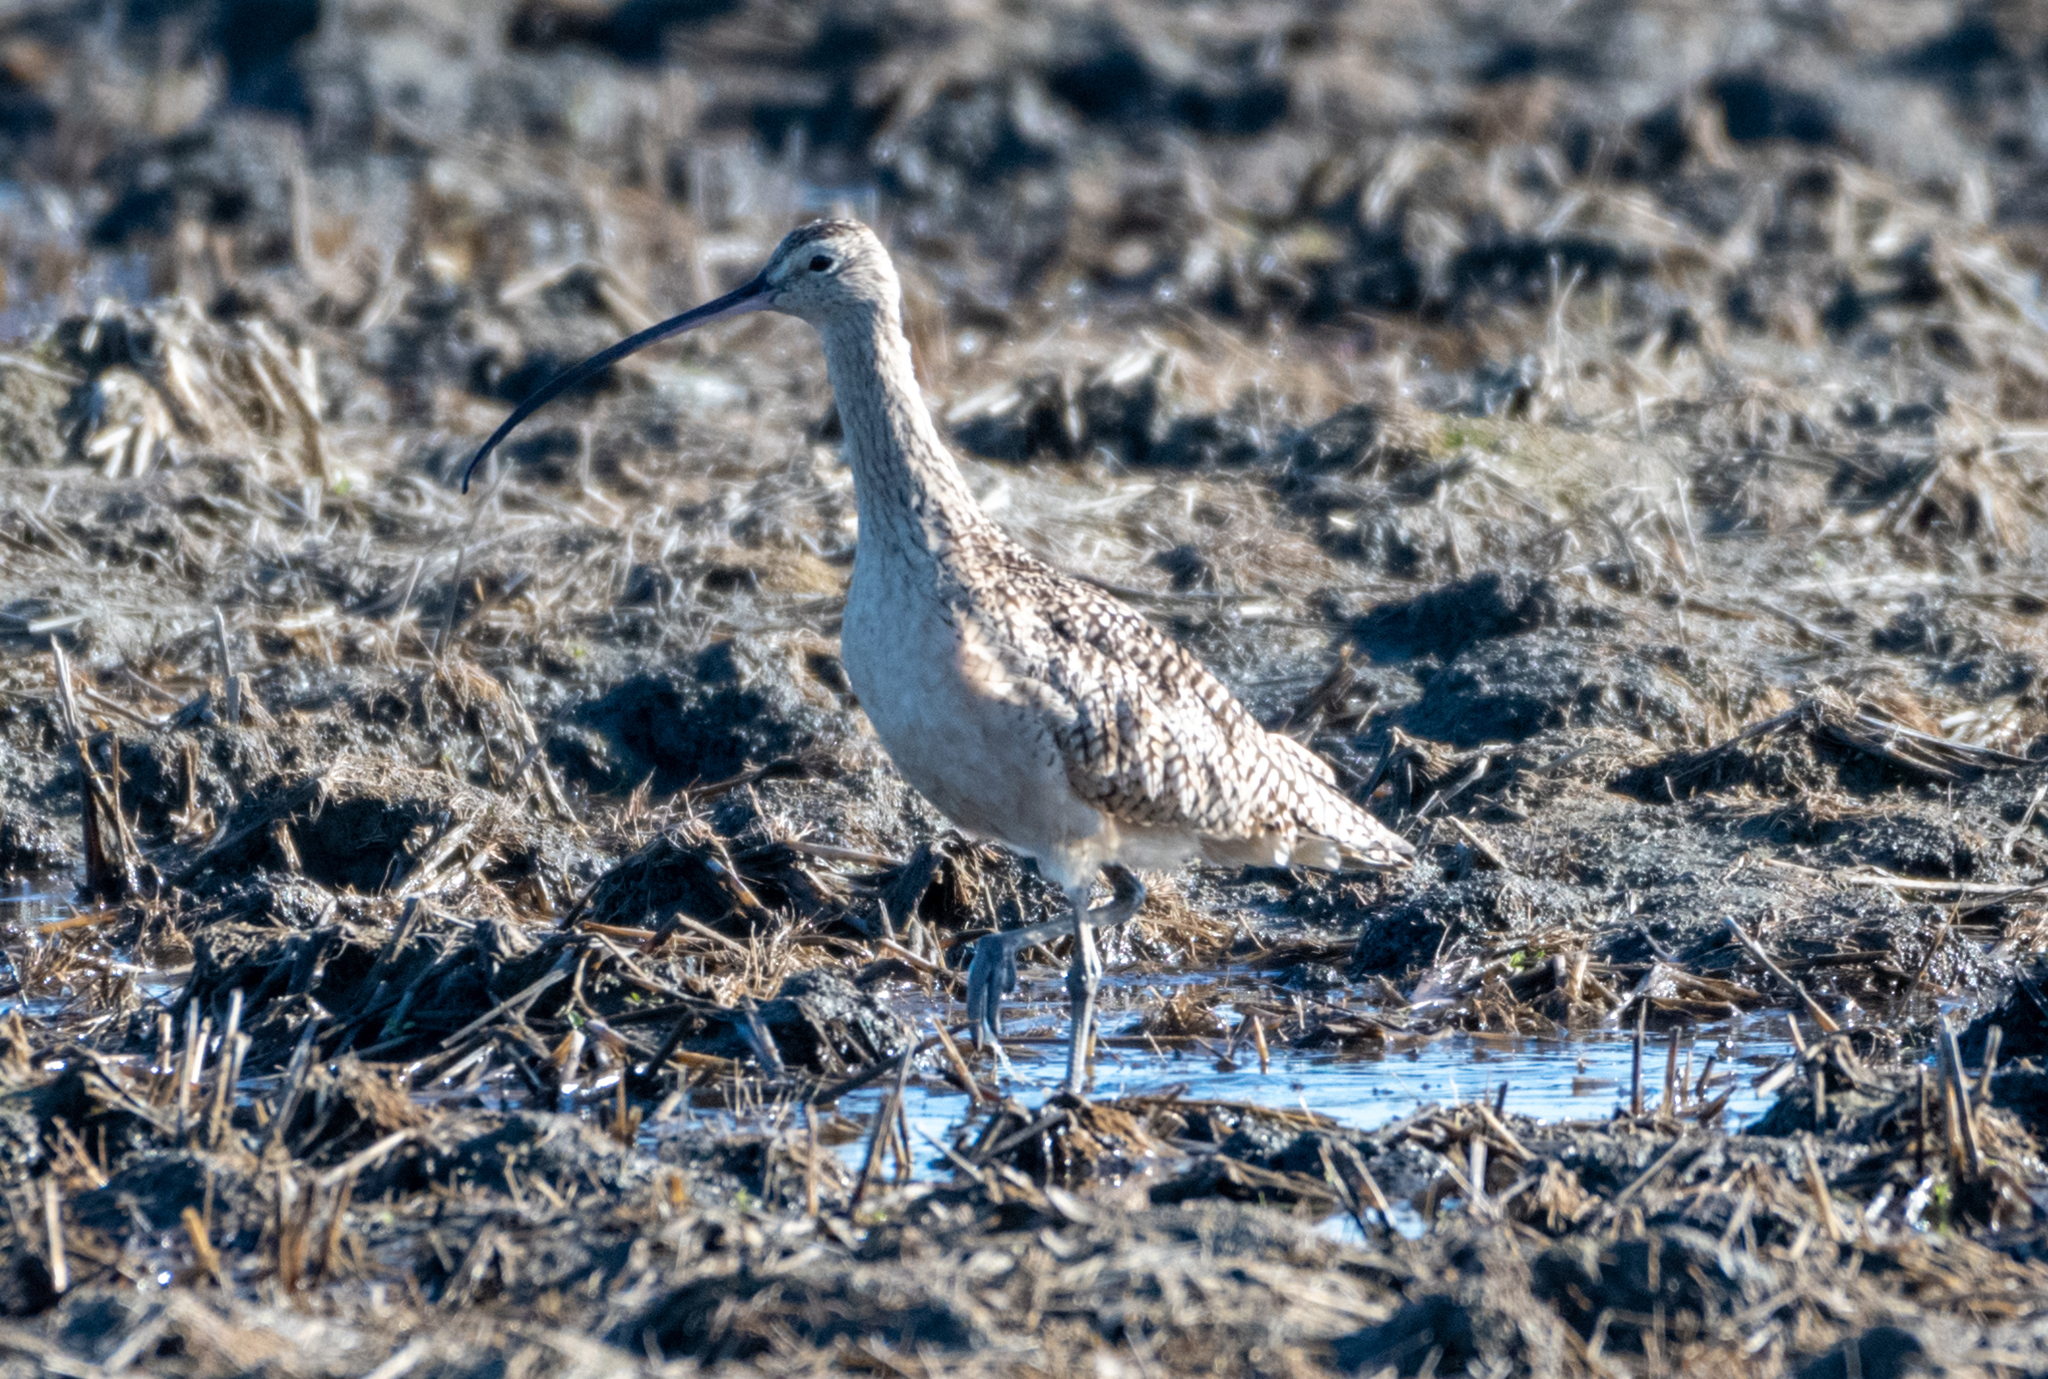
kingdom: Animalia
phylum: Chordata
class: Aves
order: Charadriiformes
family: Scolopacidae
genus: Numenius
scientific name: Numenius americanus
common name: Long-billed curlew
